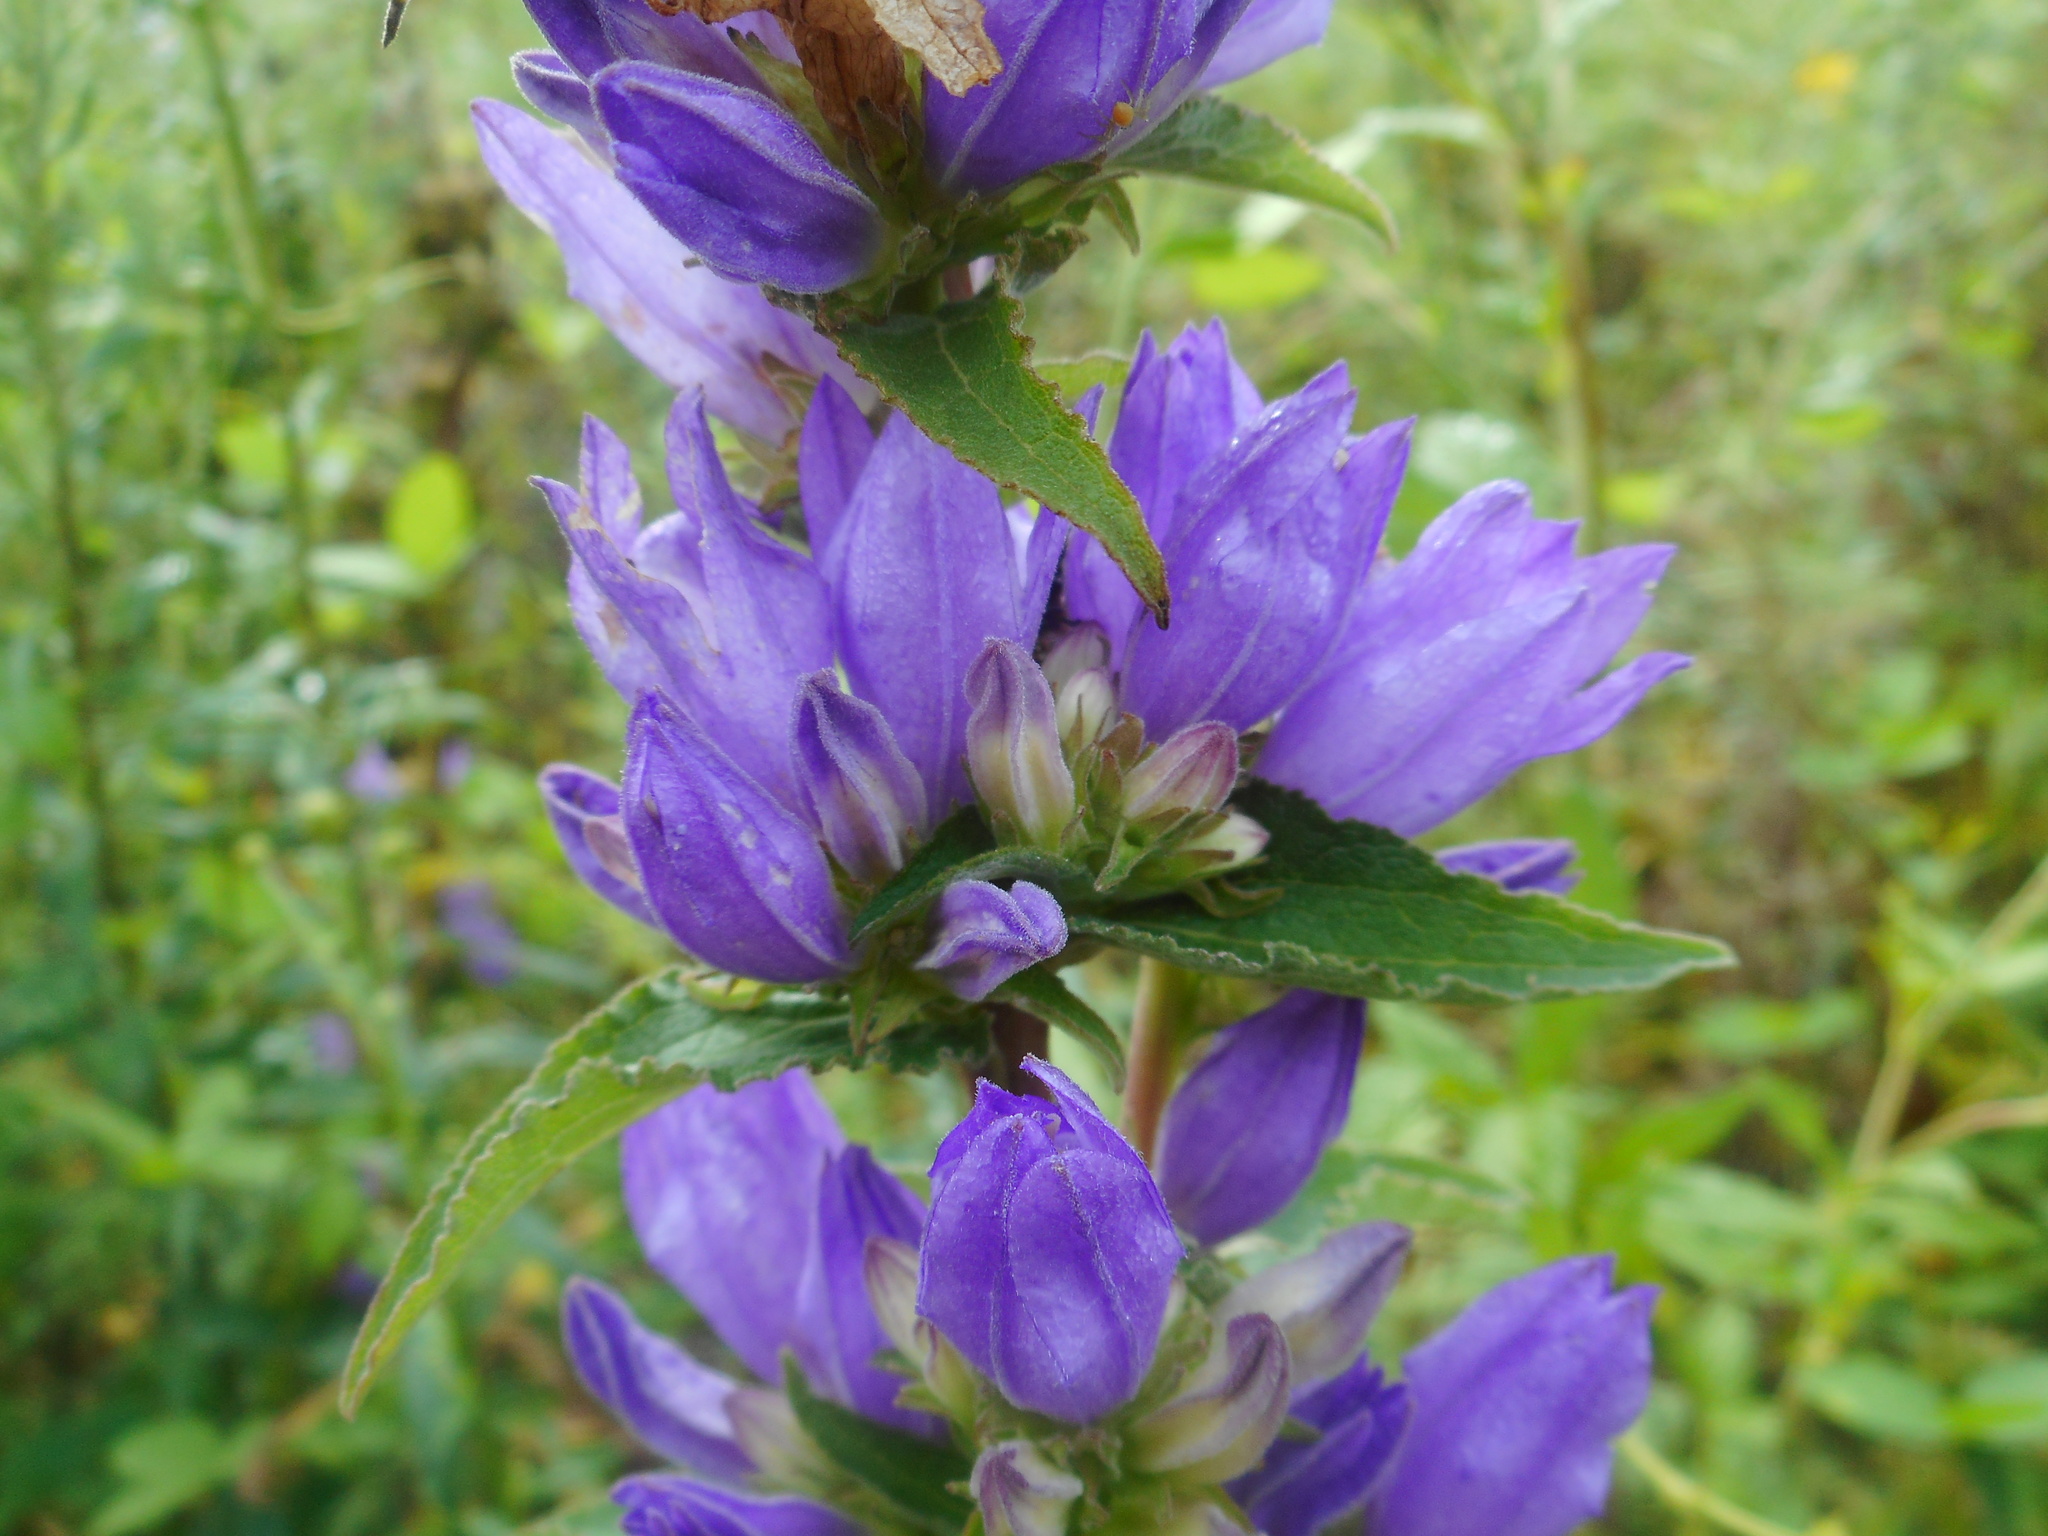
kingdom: Plantae
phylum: Tracheophyta
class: Magnoliopsida
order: Asterales
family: Campanulaceae
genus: Campanula
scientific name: Campanula glomerata
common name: Clustered bellflower
